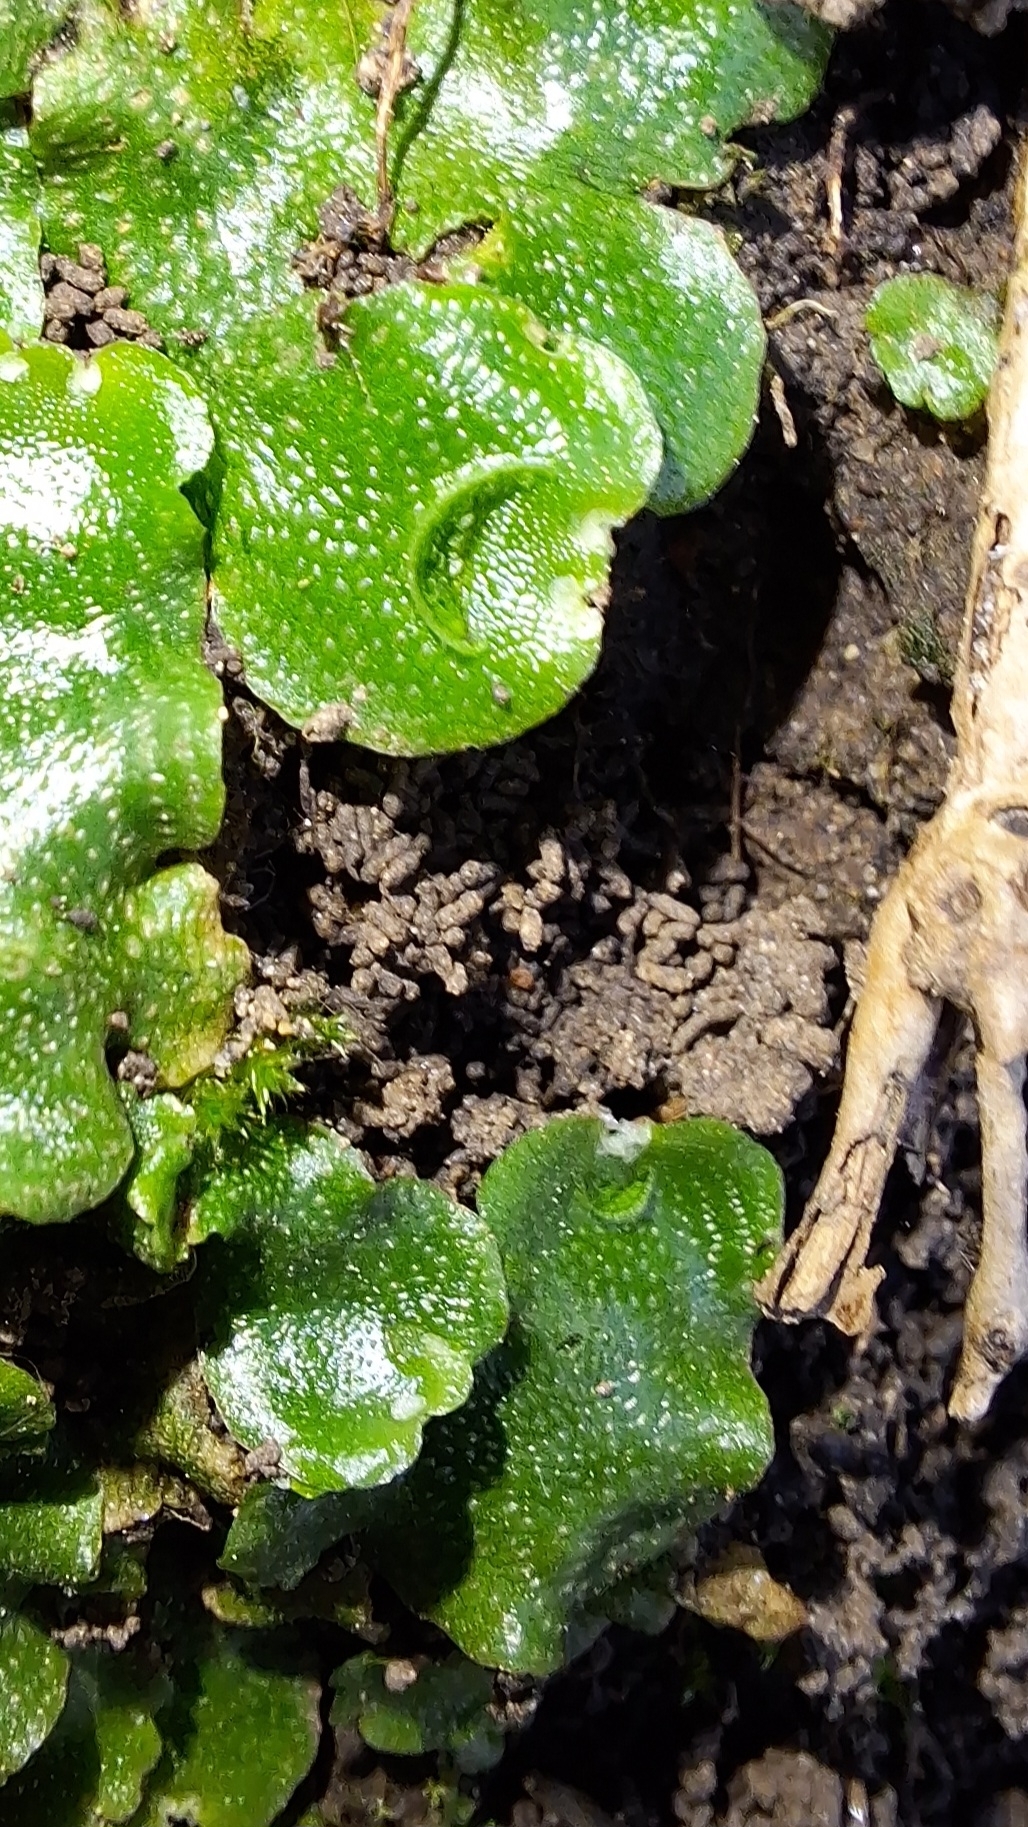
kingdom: Plantae
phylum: Marchantiophyta
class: Marchantiopsida
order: Lunulariales
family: Lunulariaceae
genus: Lunularia
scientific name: Lunularia cruciata
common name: Crescent-cup liverwort
